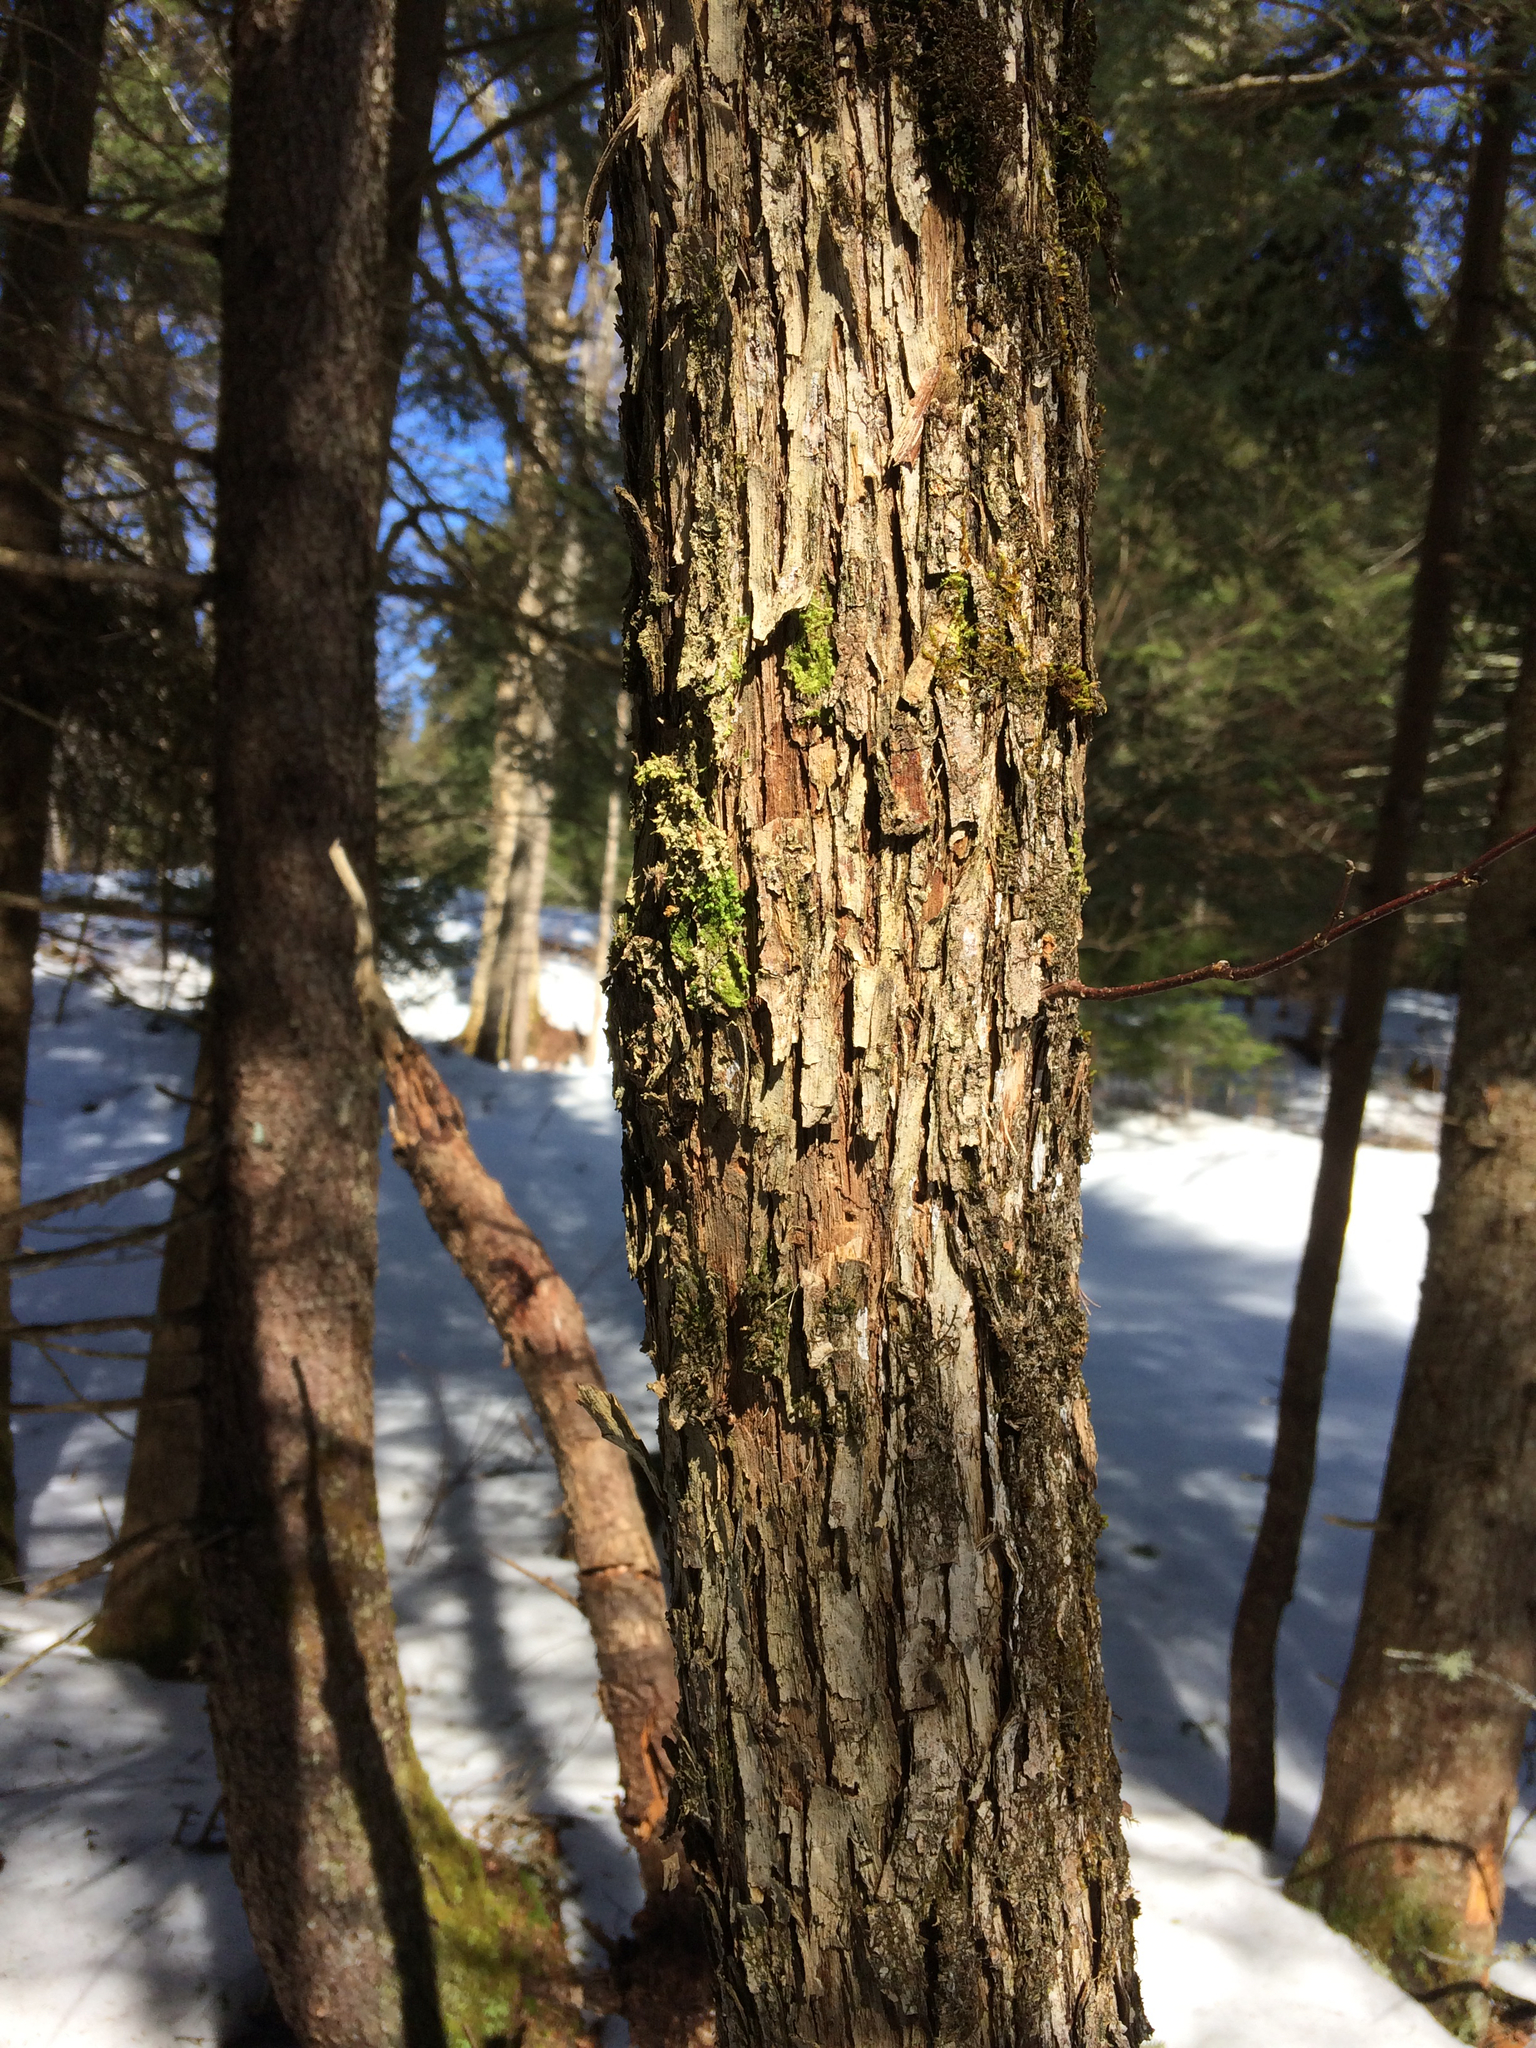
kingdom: Plantae
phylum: Tracheophyta
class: Magnoliopsida
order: Fagales
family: Betulaceae
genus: Ostrya
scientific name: Ostrya virginiana
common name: Ironwood
